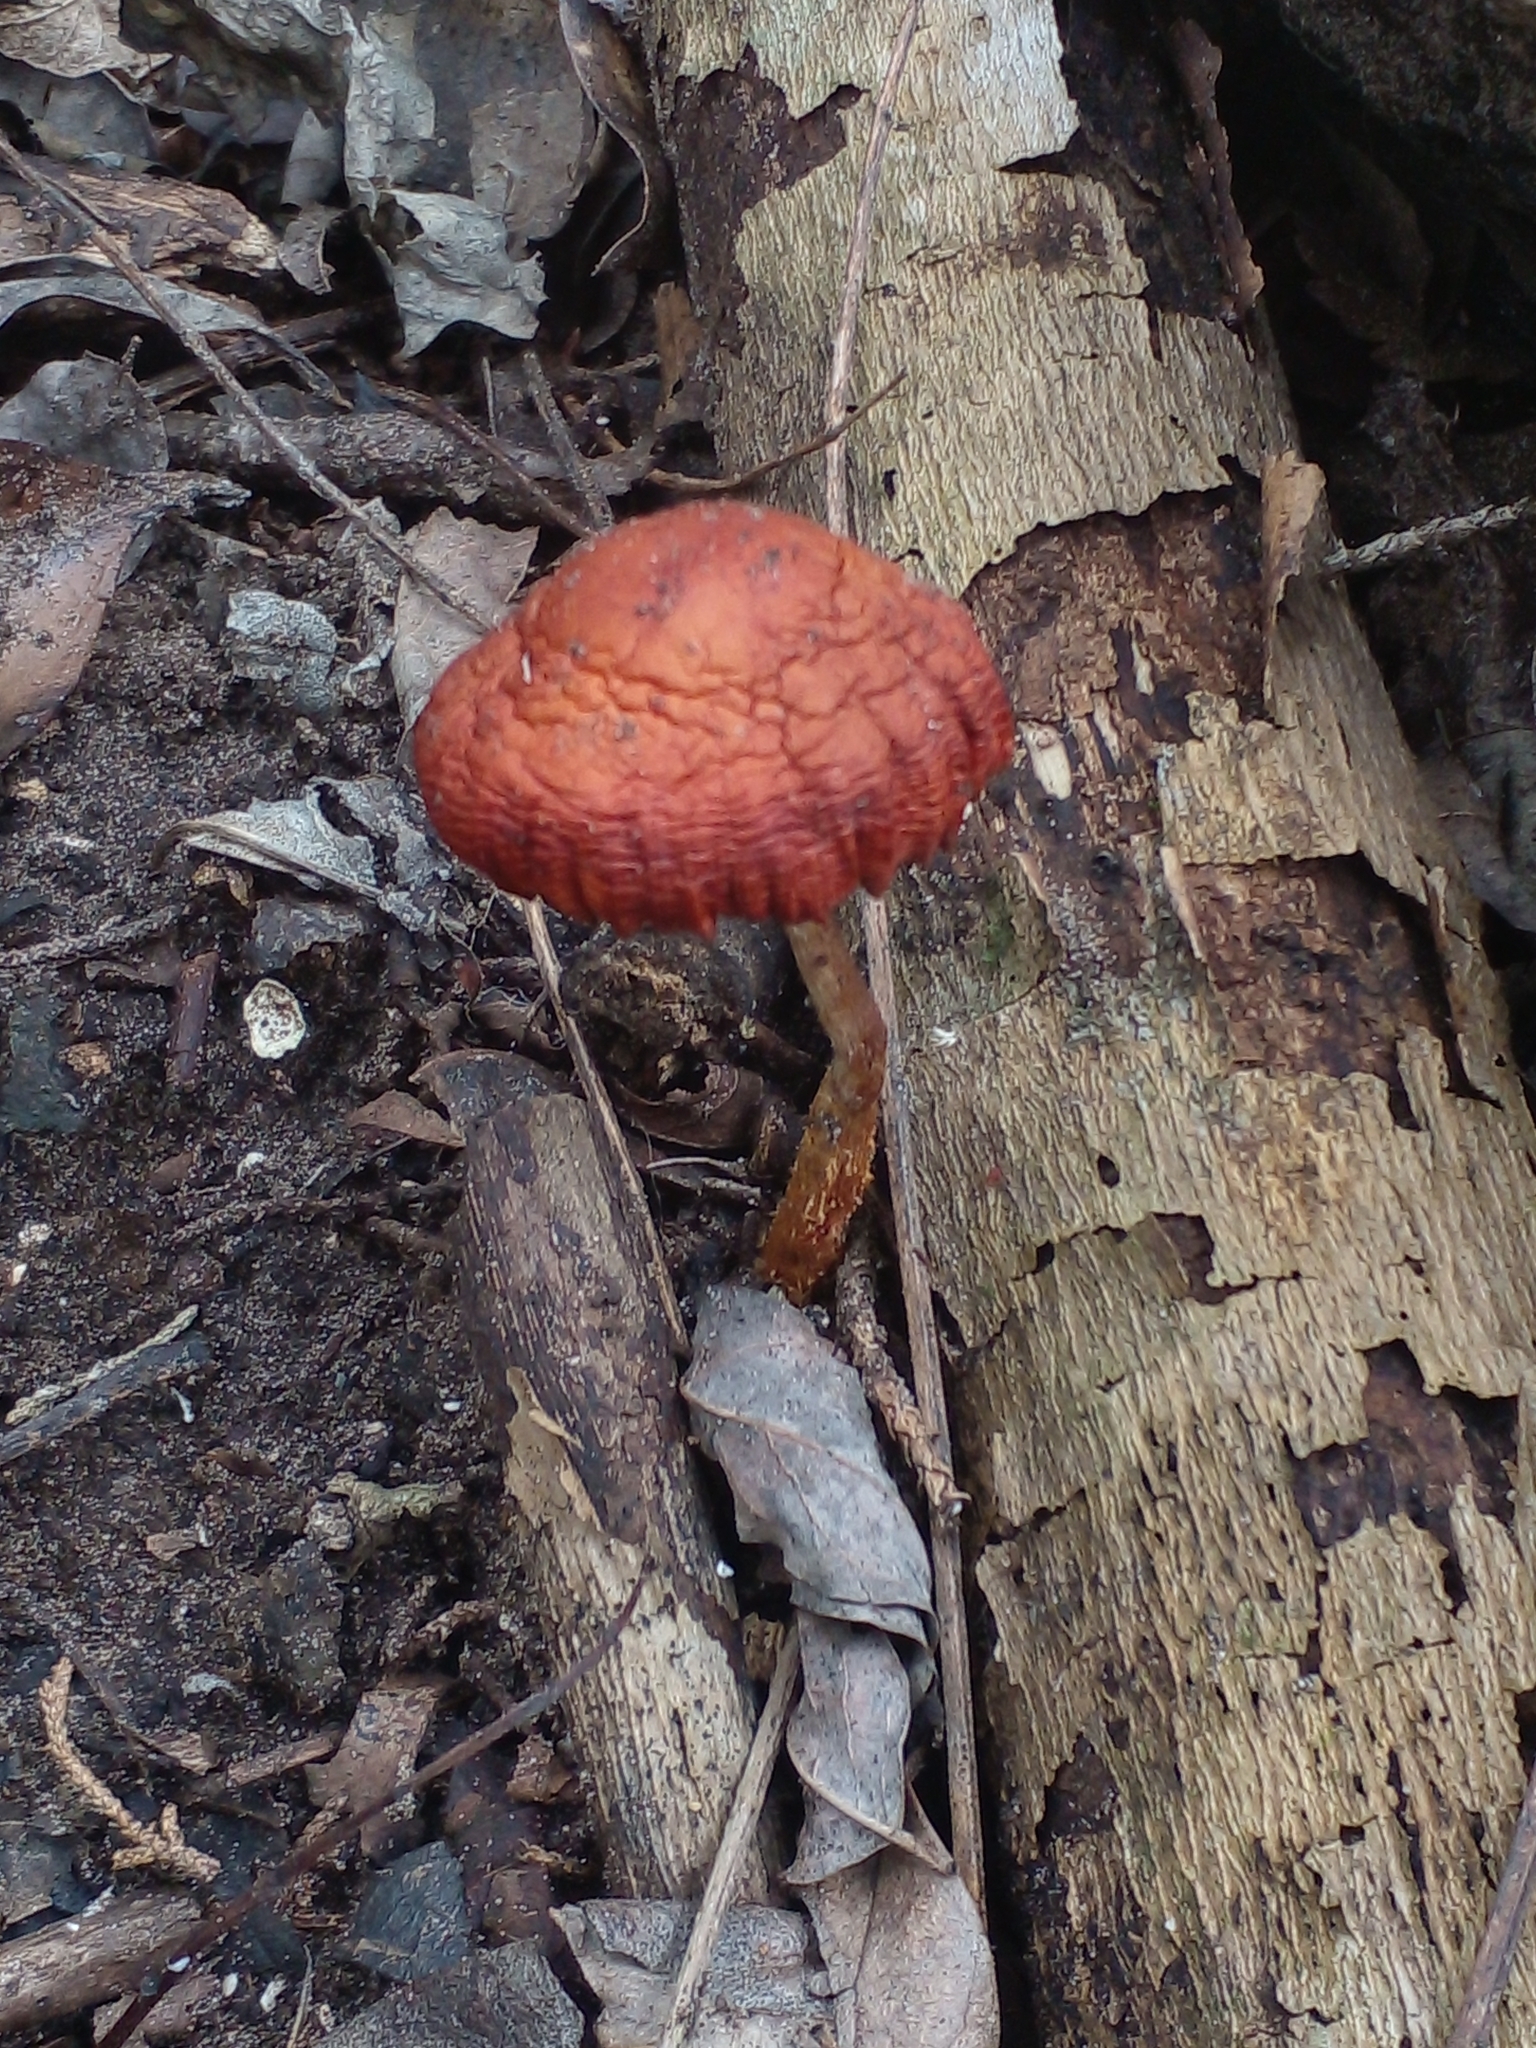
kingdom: Fungi
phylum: Basidiomycota
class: Agaricomycetes
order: Agaricales
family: Strophariaceae
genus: Leratiomyces
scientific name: Leratiomyces ceres
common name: Redlead roundhead
